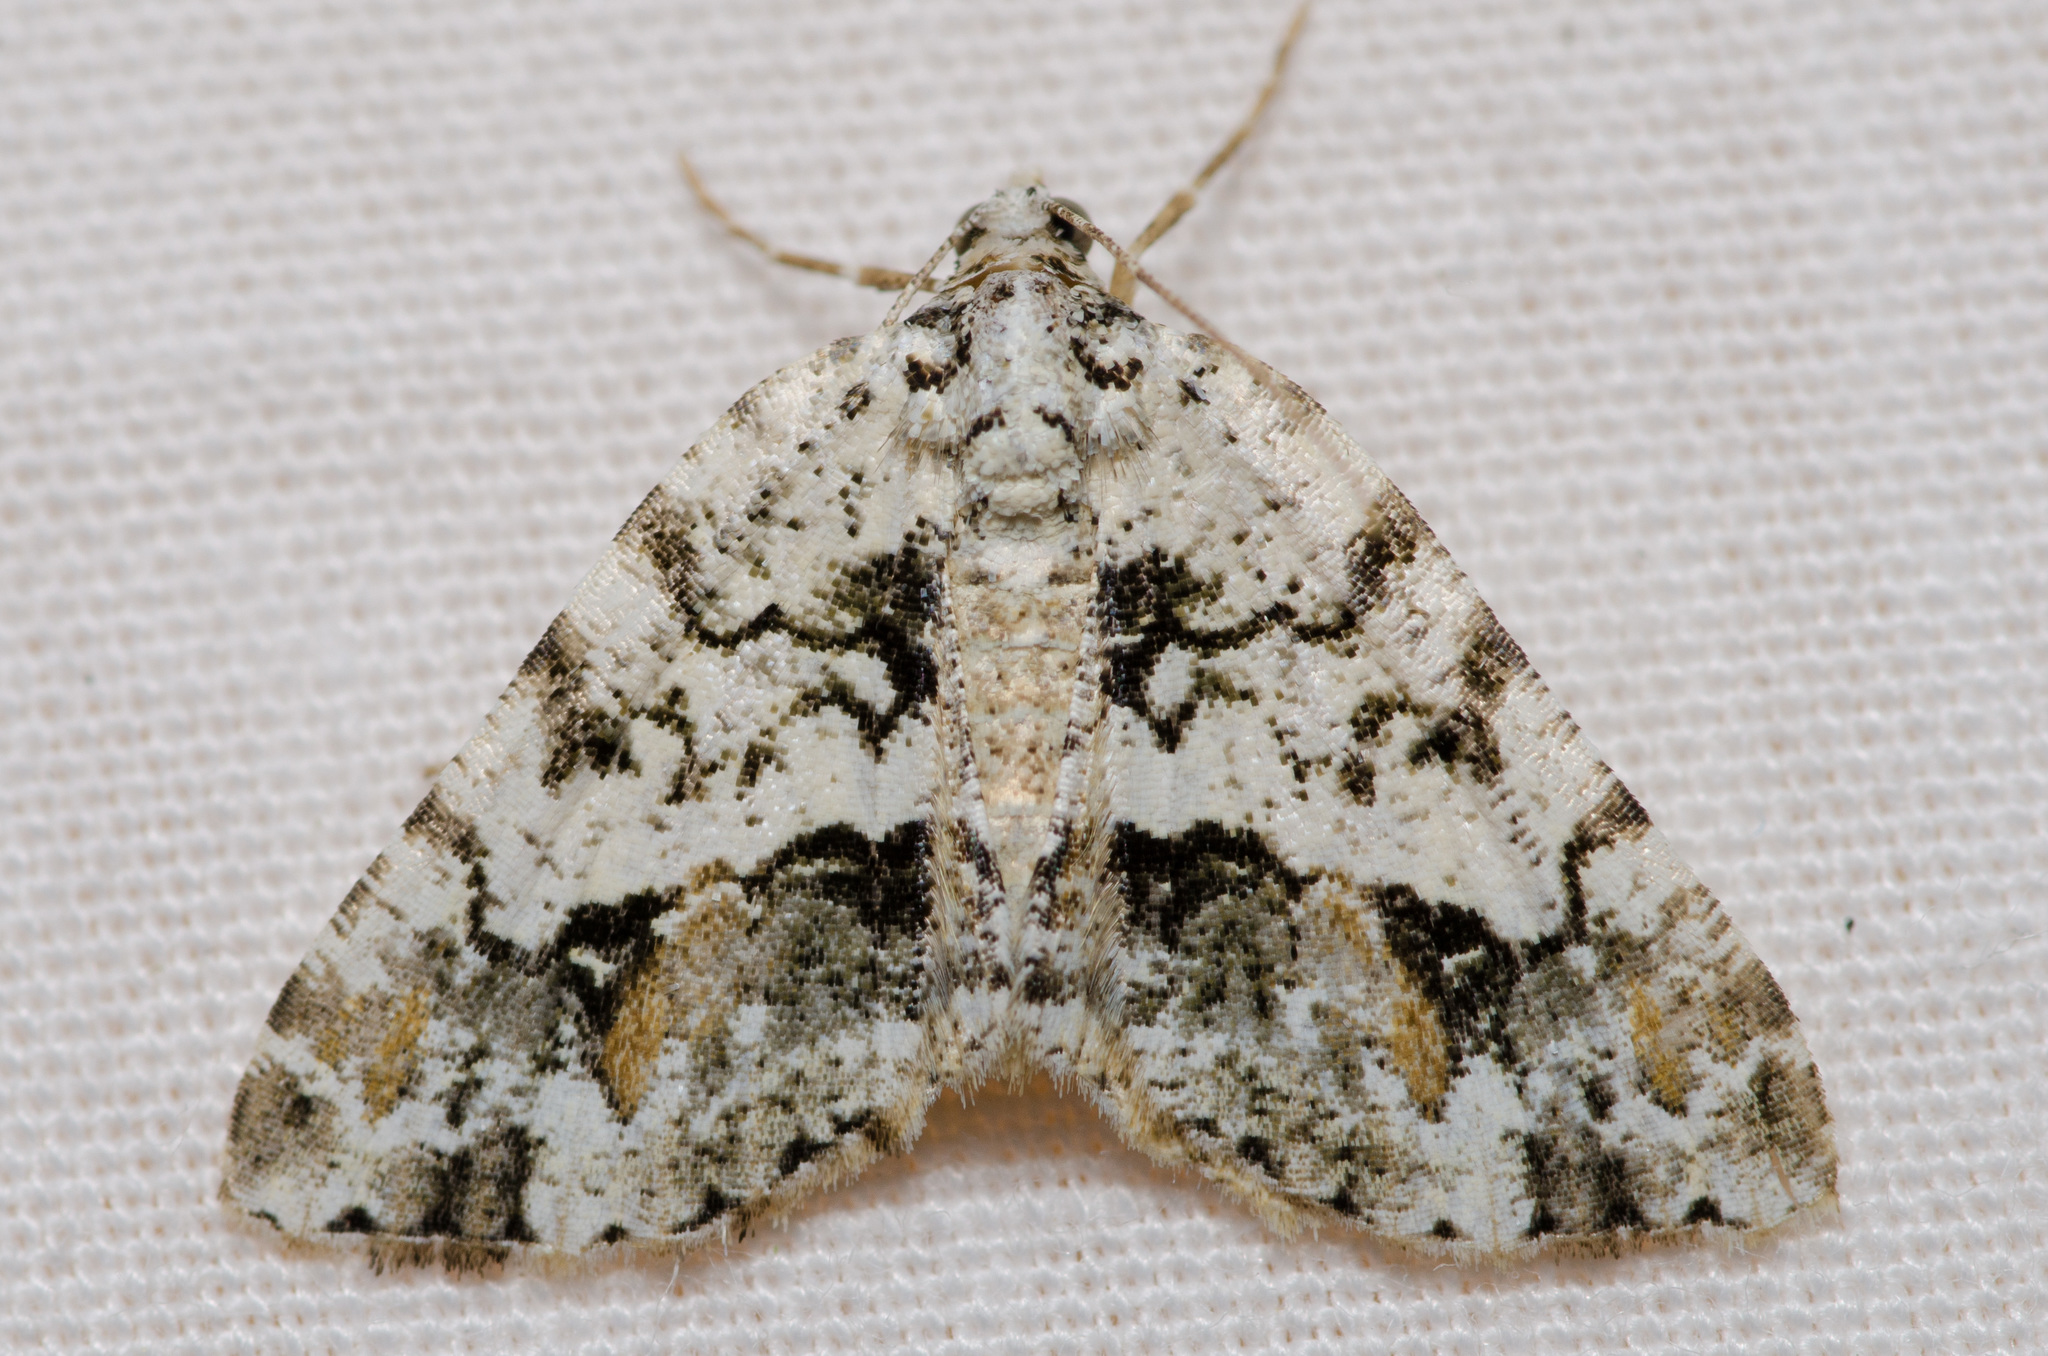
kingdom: Animalia
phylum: Arthropoda
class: Insecta
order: Lepidoptera
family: Geometridae
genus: Macaria
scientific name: Macaria graphidaria
